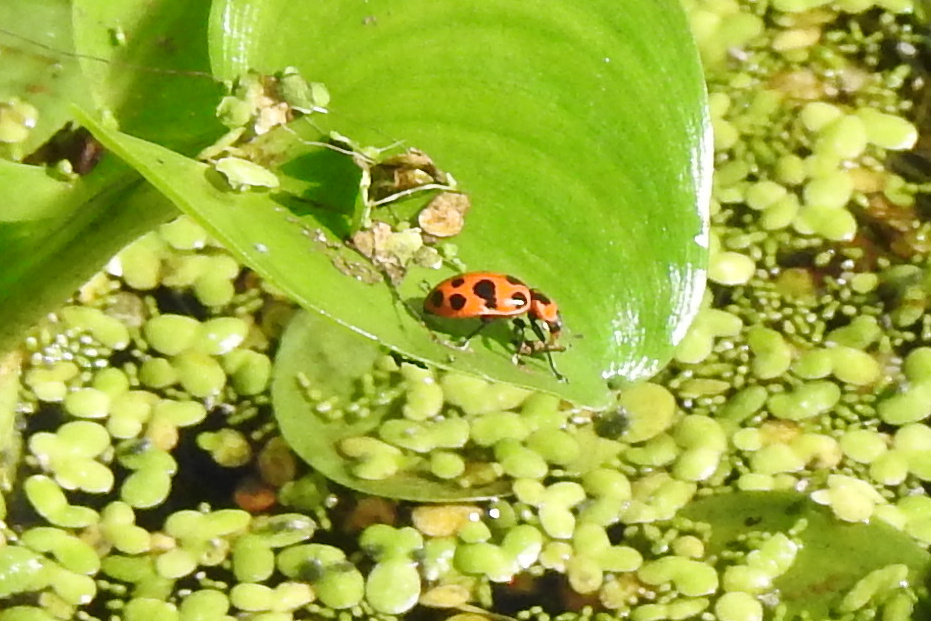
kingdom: Animalia
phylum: Arthropoda
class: Insecta
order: Coleoptera
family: Coccinellidae
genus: Coleomegilla
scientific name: Coleomegilla maculata
